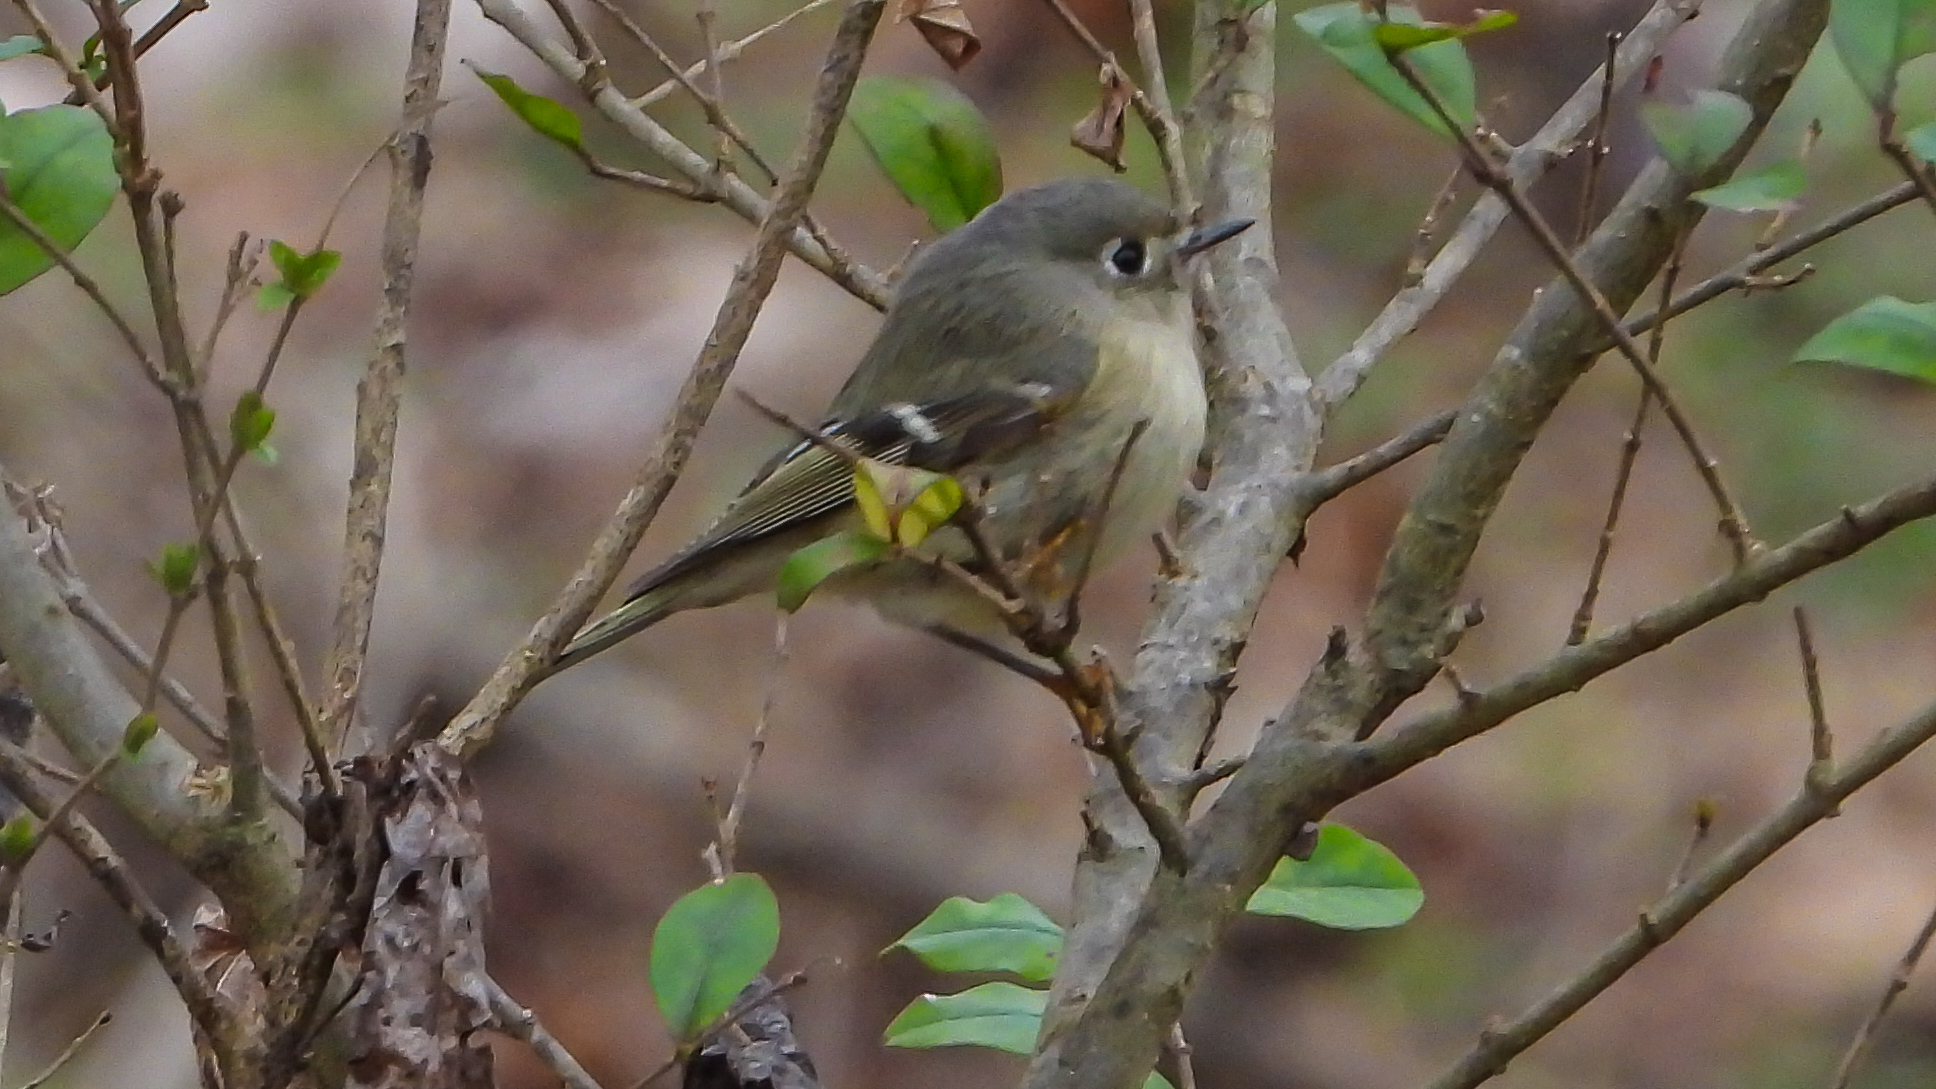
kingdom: Animalia
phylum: Chordata
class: Aves
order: Passeriformes
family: Regulidae
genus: Regulus
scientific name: Regulus calendula
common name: Ruby-crowned kinglet
